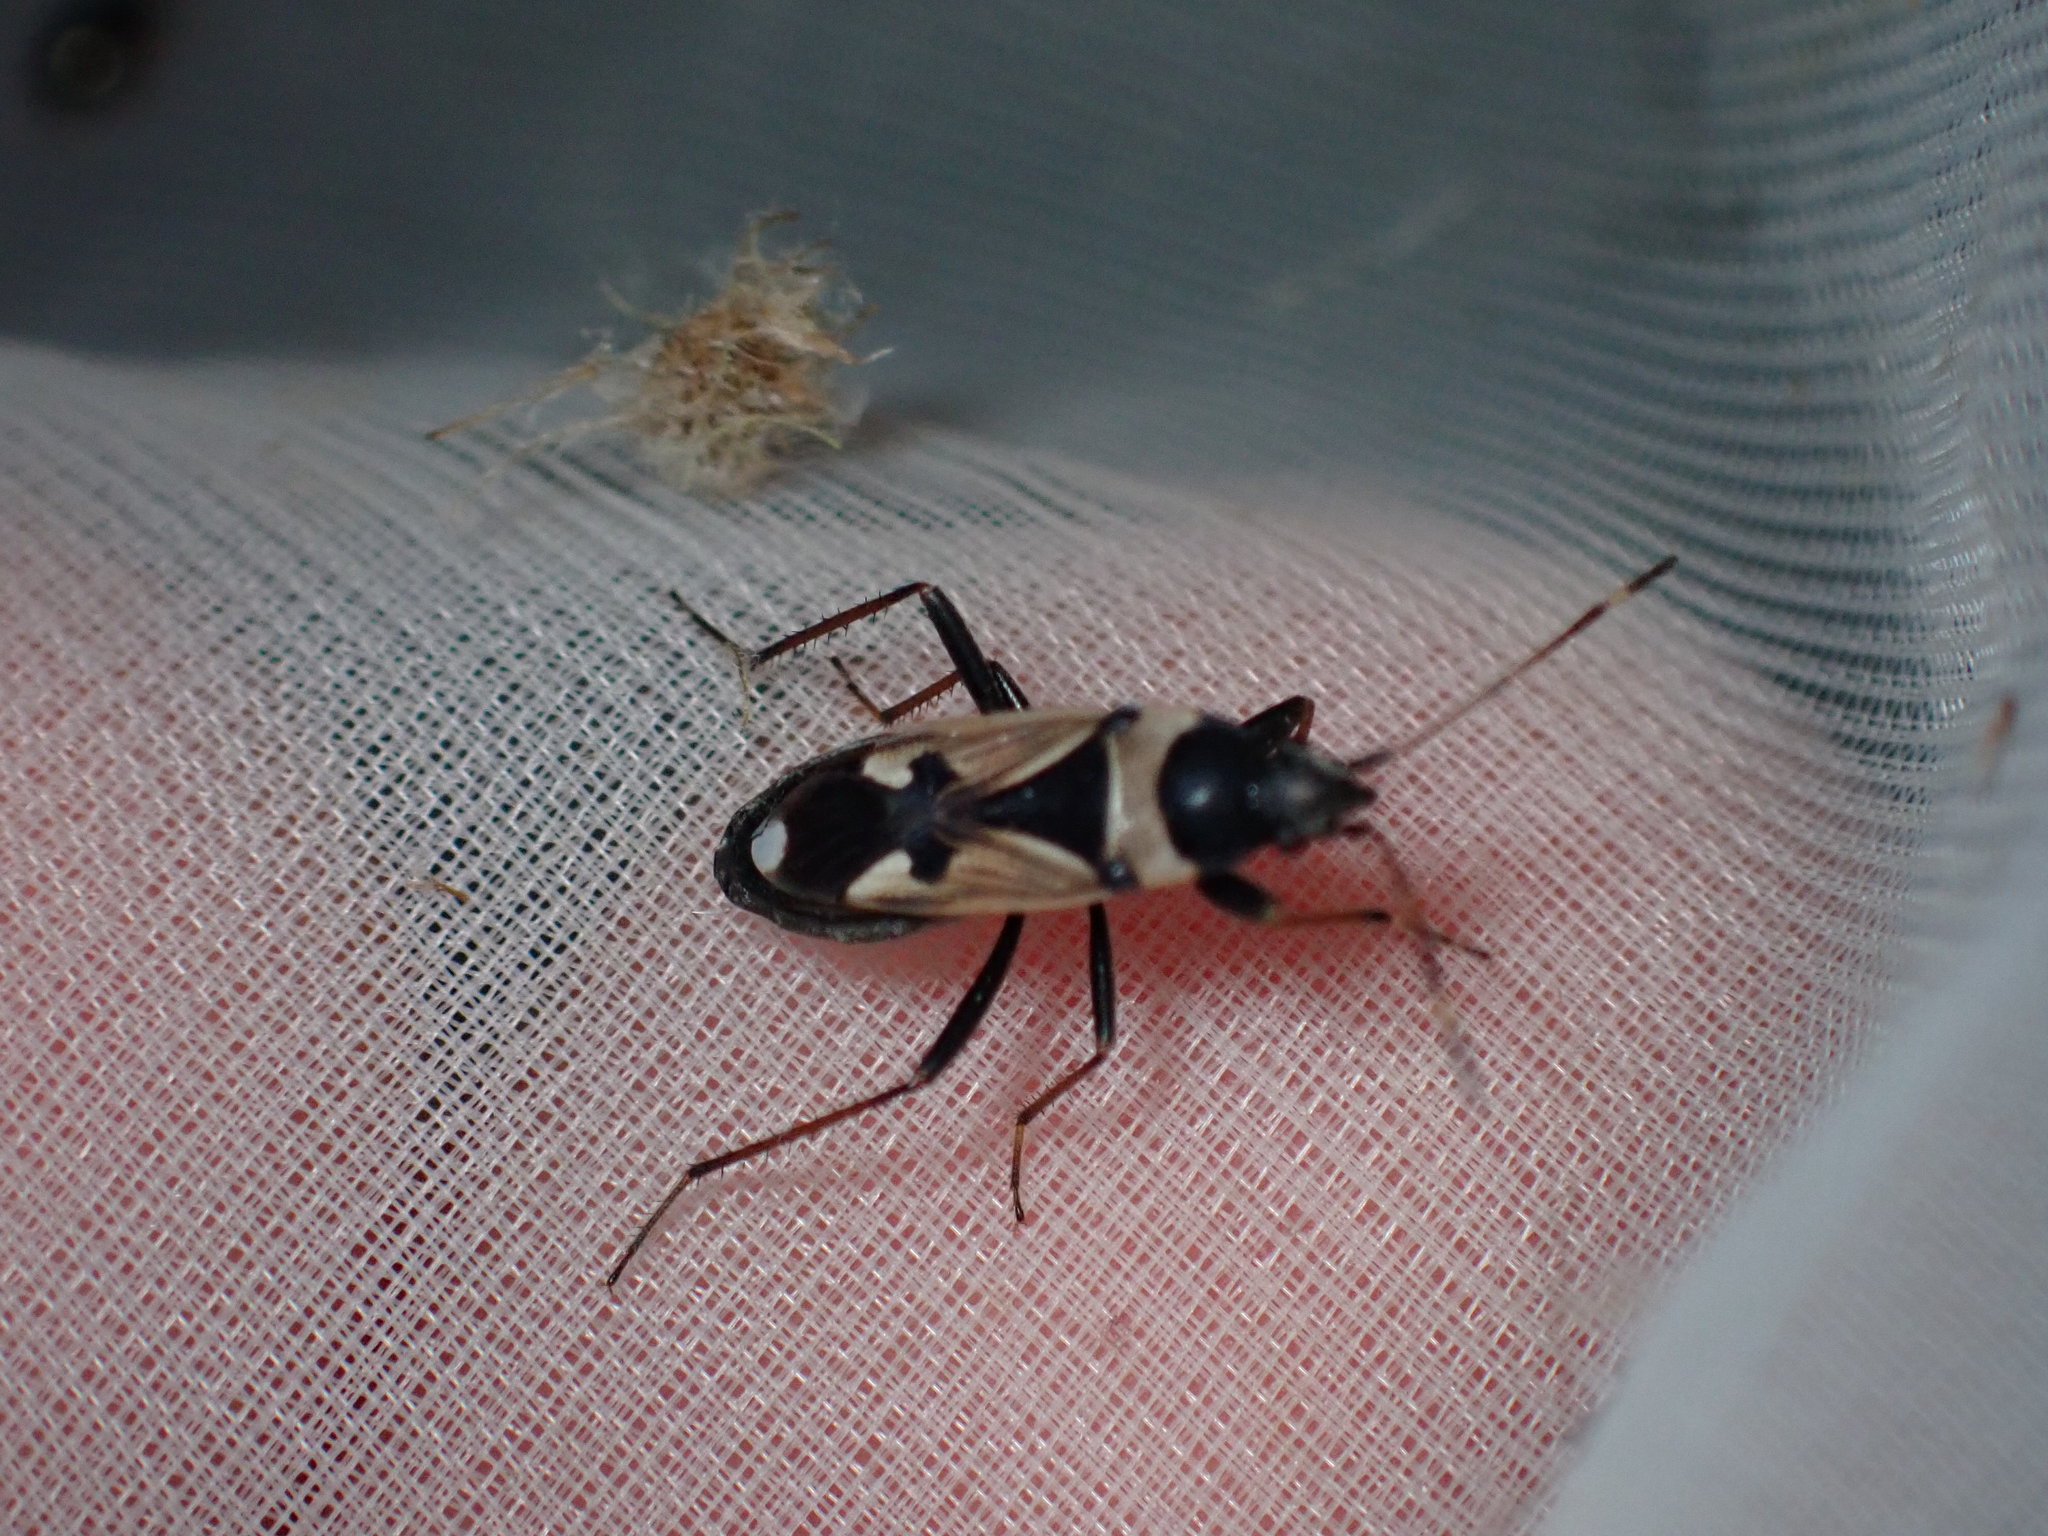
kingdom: Animalia
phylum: Arthropoda
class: Insecta
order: Hemiptera
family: Rhyparochromidae
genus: Raglius
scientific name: Raglius confusus
